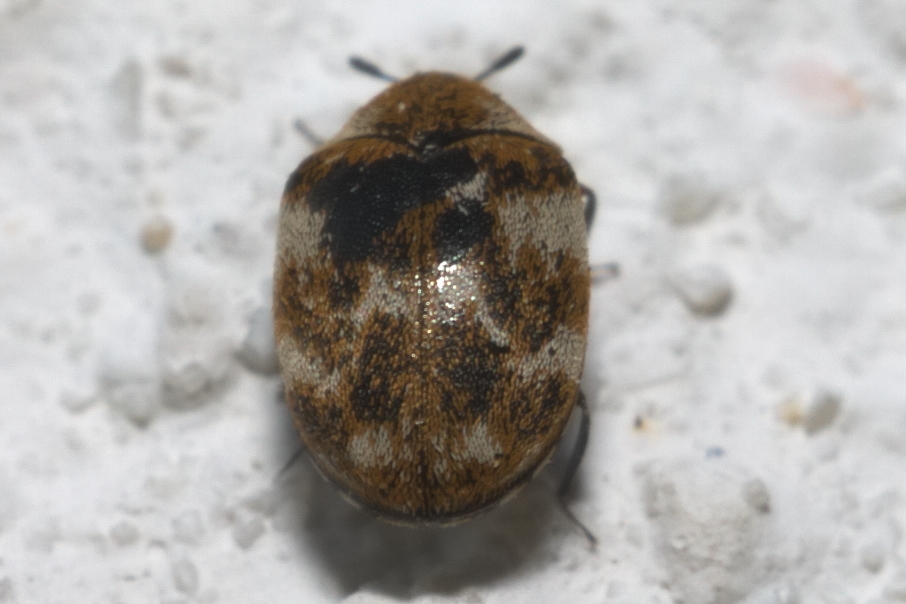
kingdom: Animalia
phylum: Arthropoda
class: Insecta
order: Coleoptera
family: Dermestidae
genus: Anthrenus
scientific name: Anthrenus verbasci
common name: Varied carpet beetle
